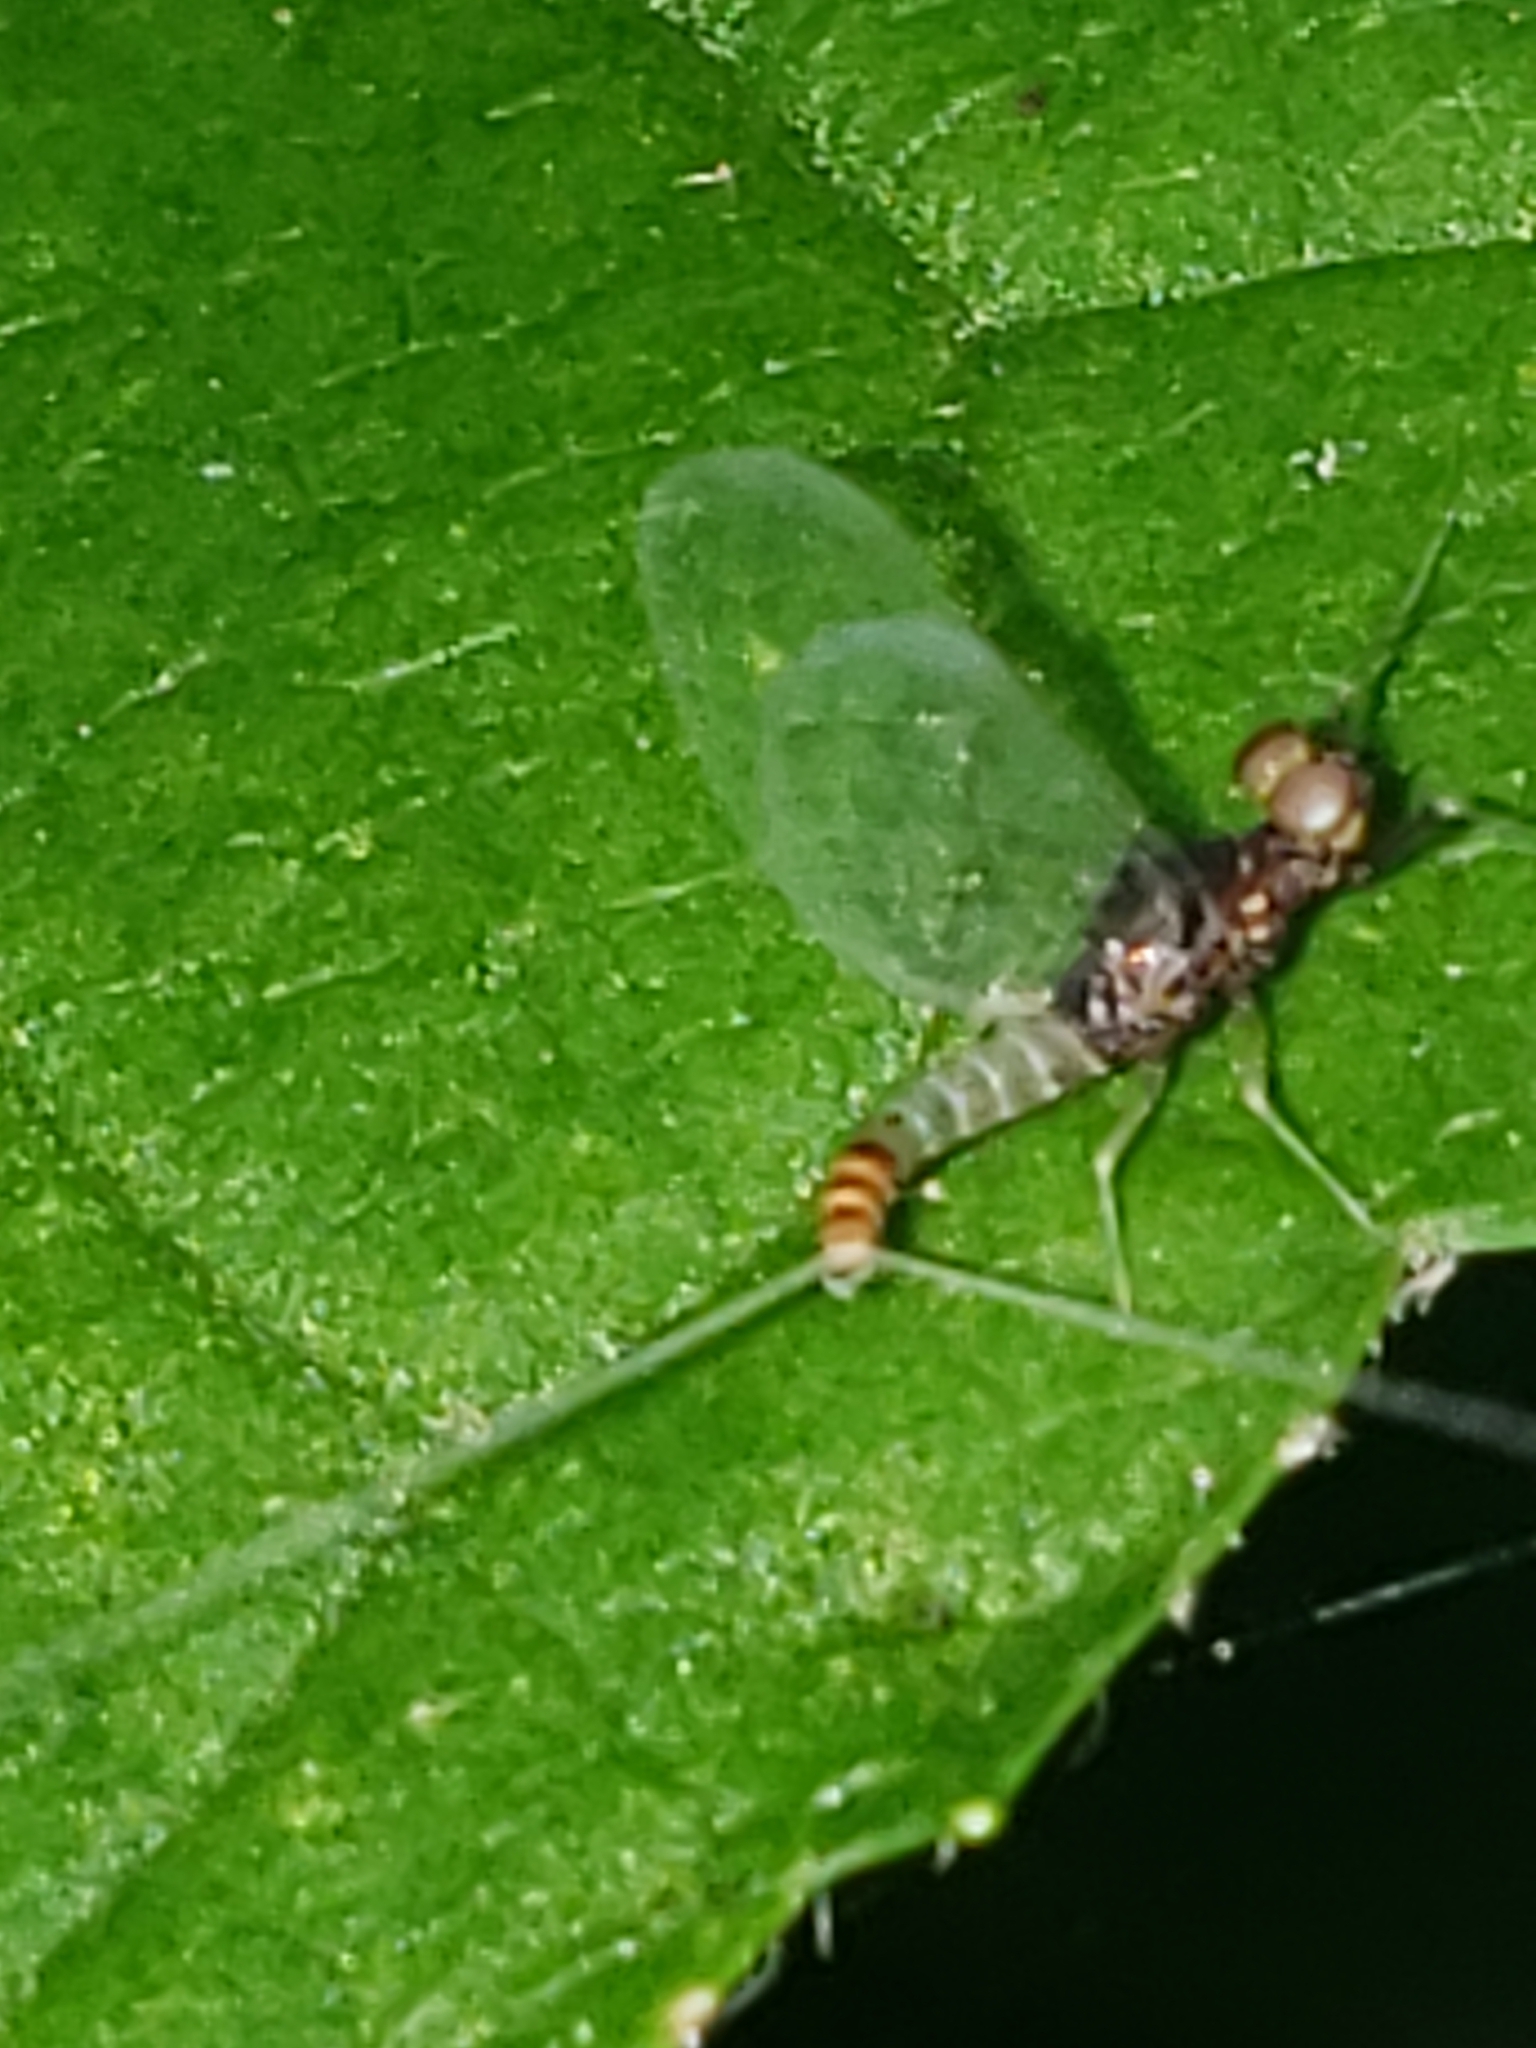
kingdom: Animalia
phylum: Arthropoda
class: Insecta
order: Ephemeroptera
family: Baetidae
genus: Baetis
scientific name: Baetis flavistriga
